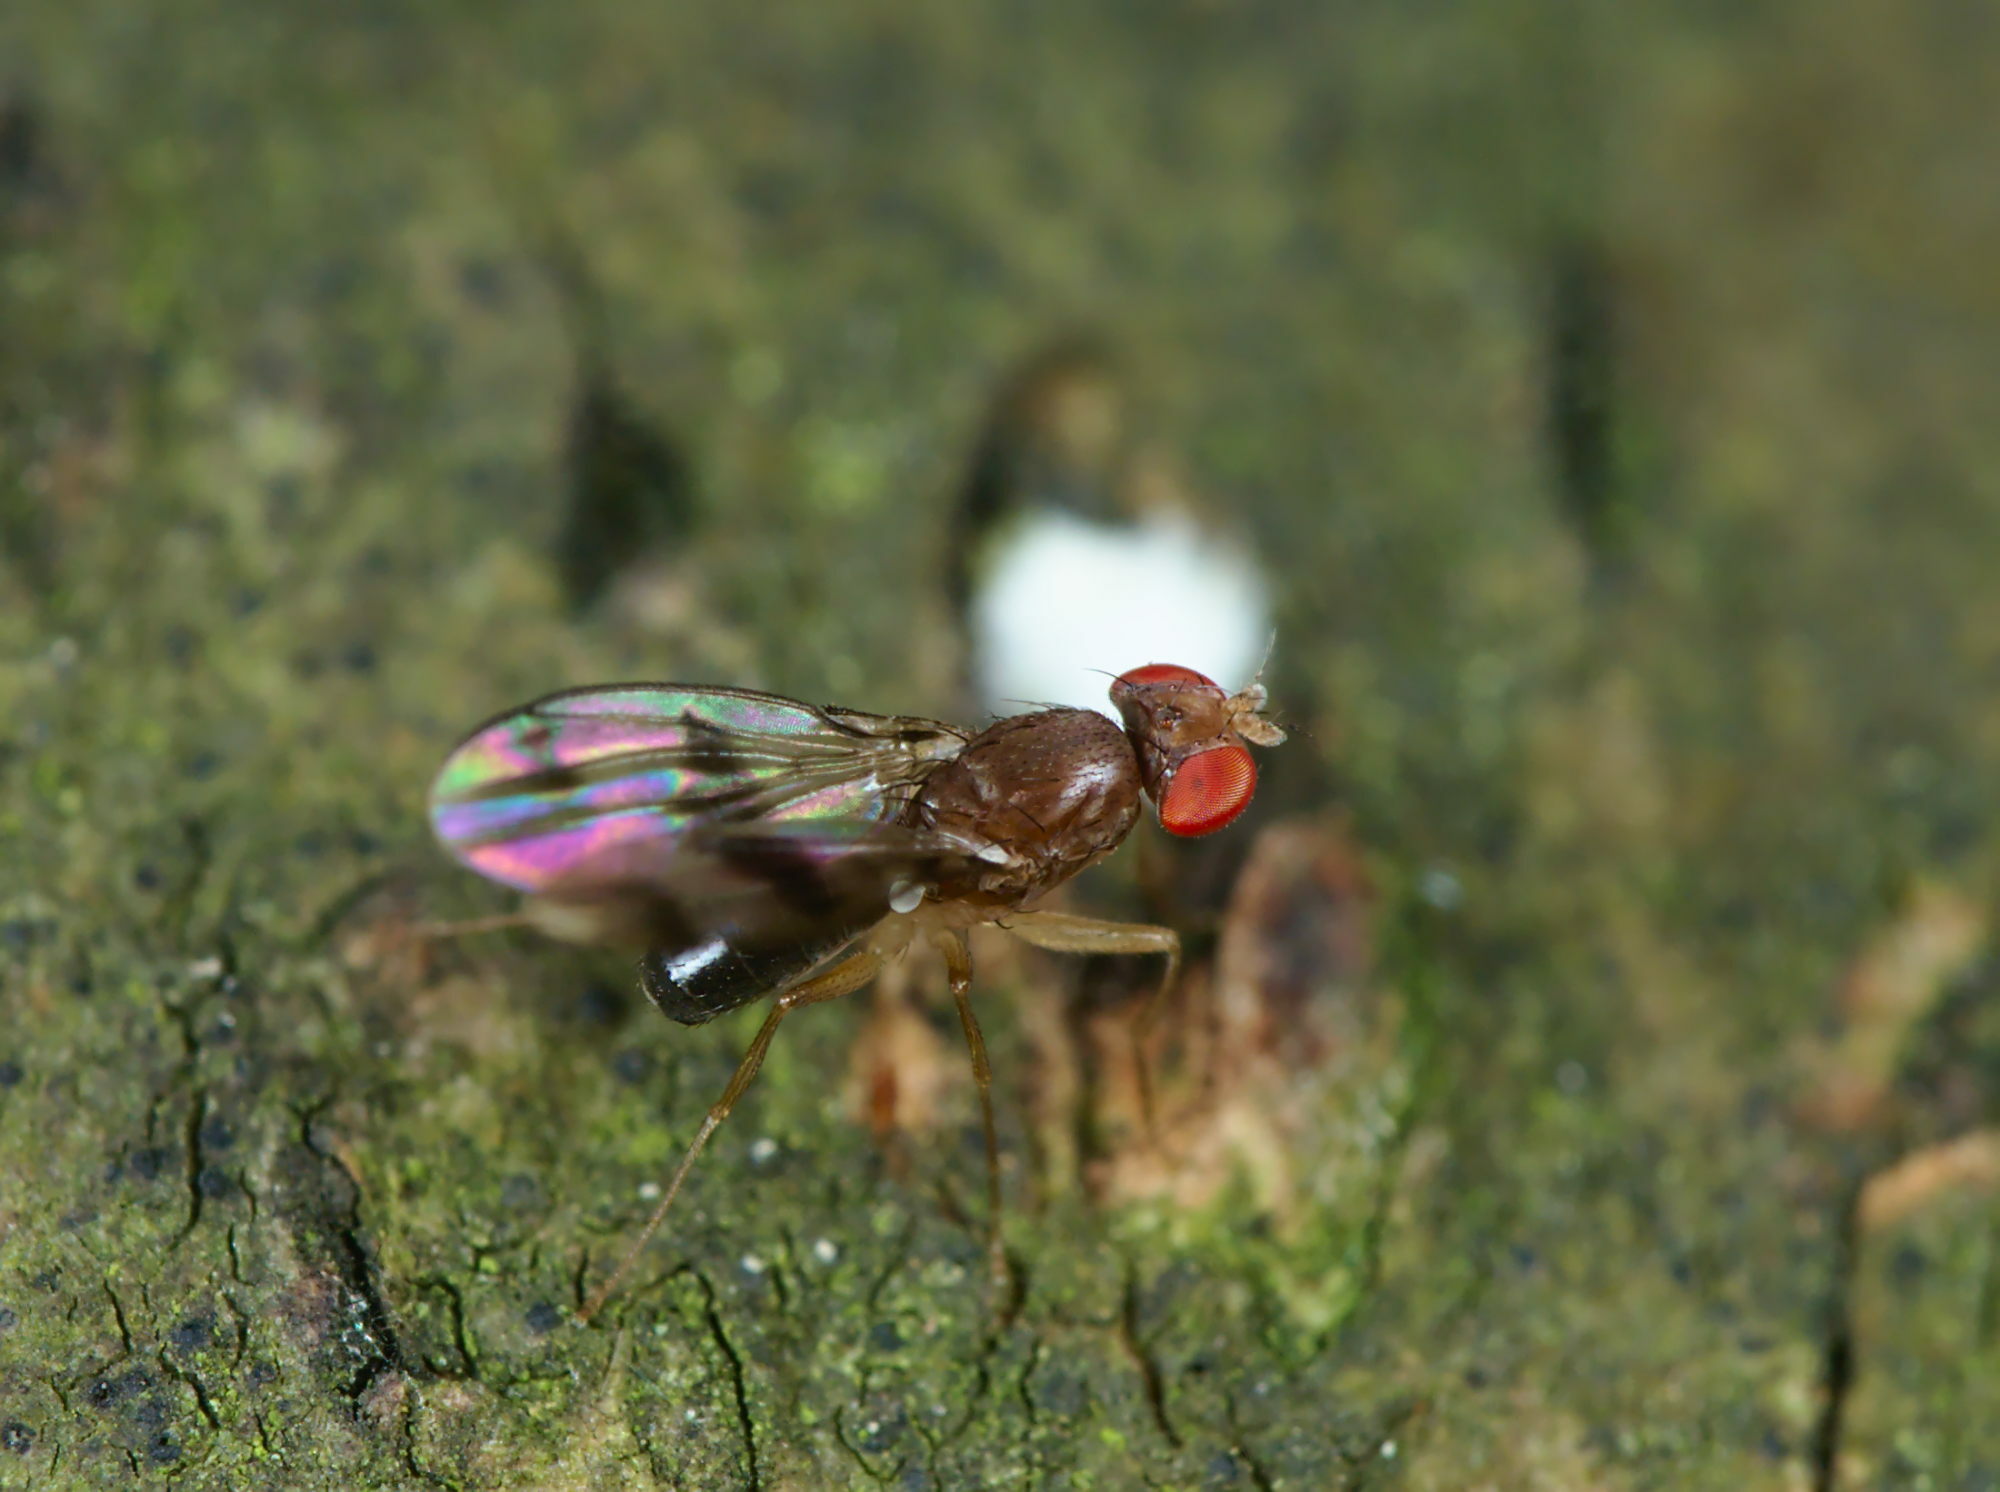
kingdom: Animalia
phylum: Arthropoda
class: Insecta
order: Diptera
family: Drosophilidae
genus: Chymomyza
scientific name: Chymomyza amoena
